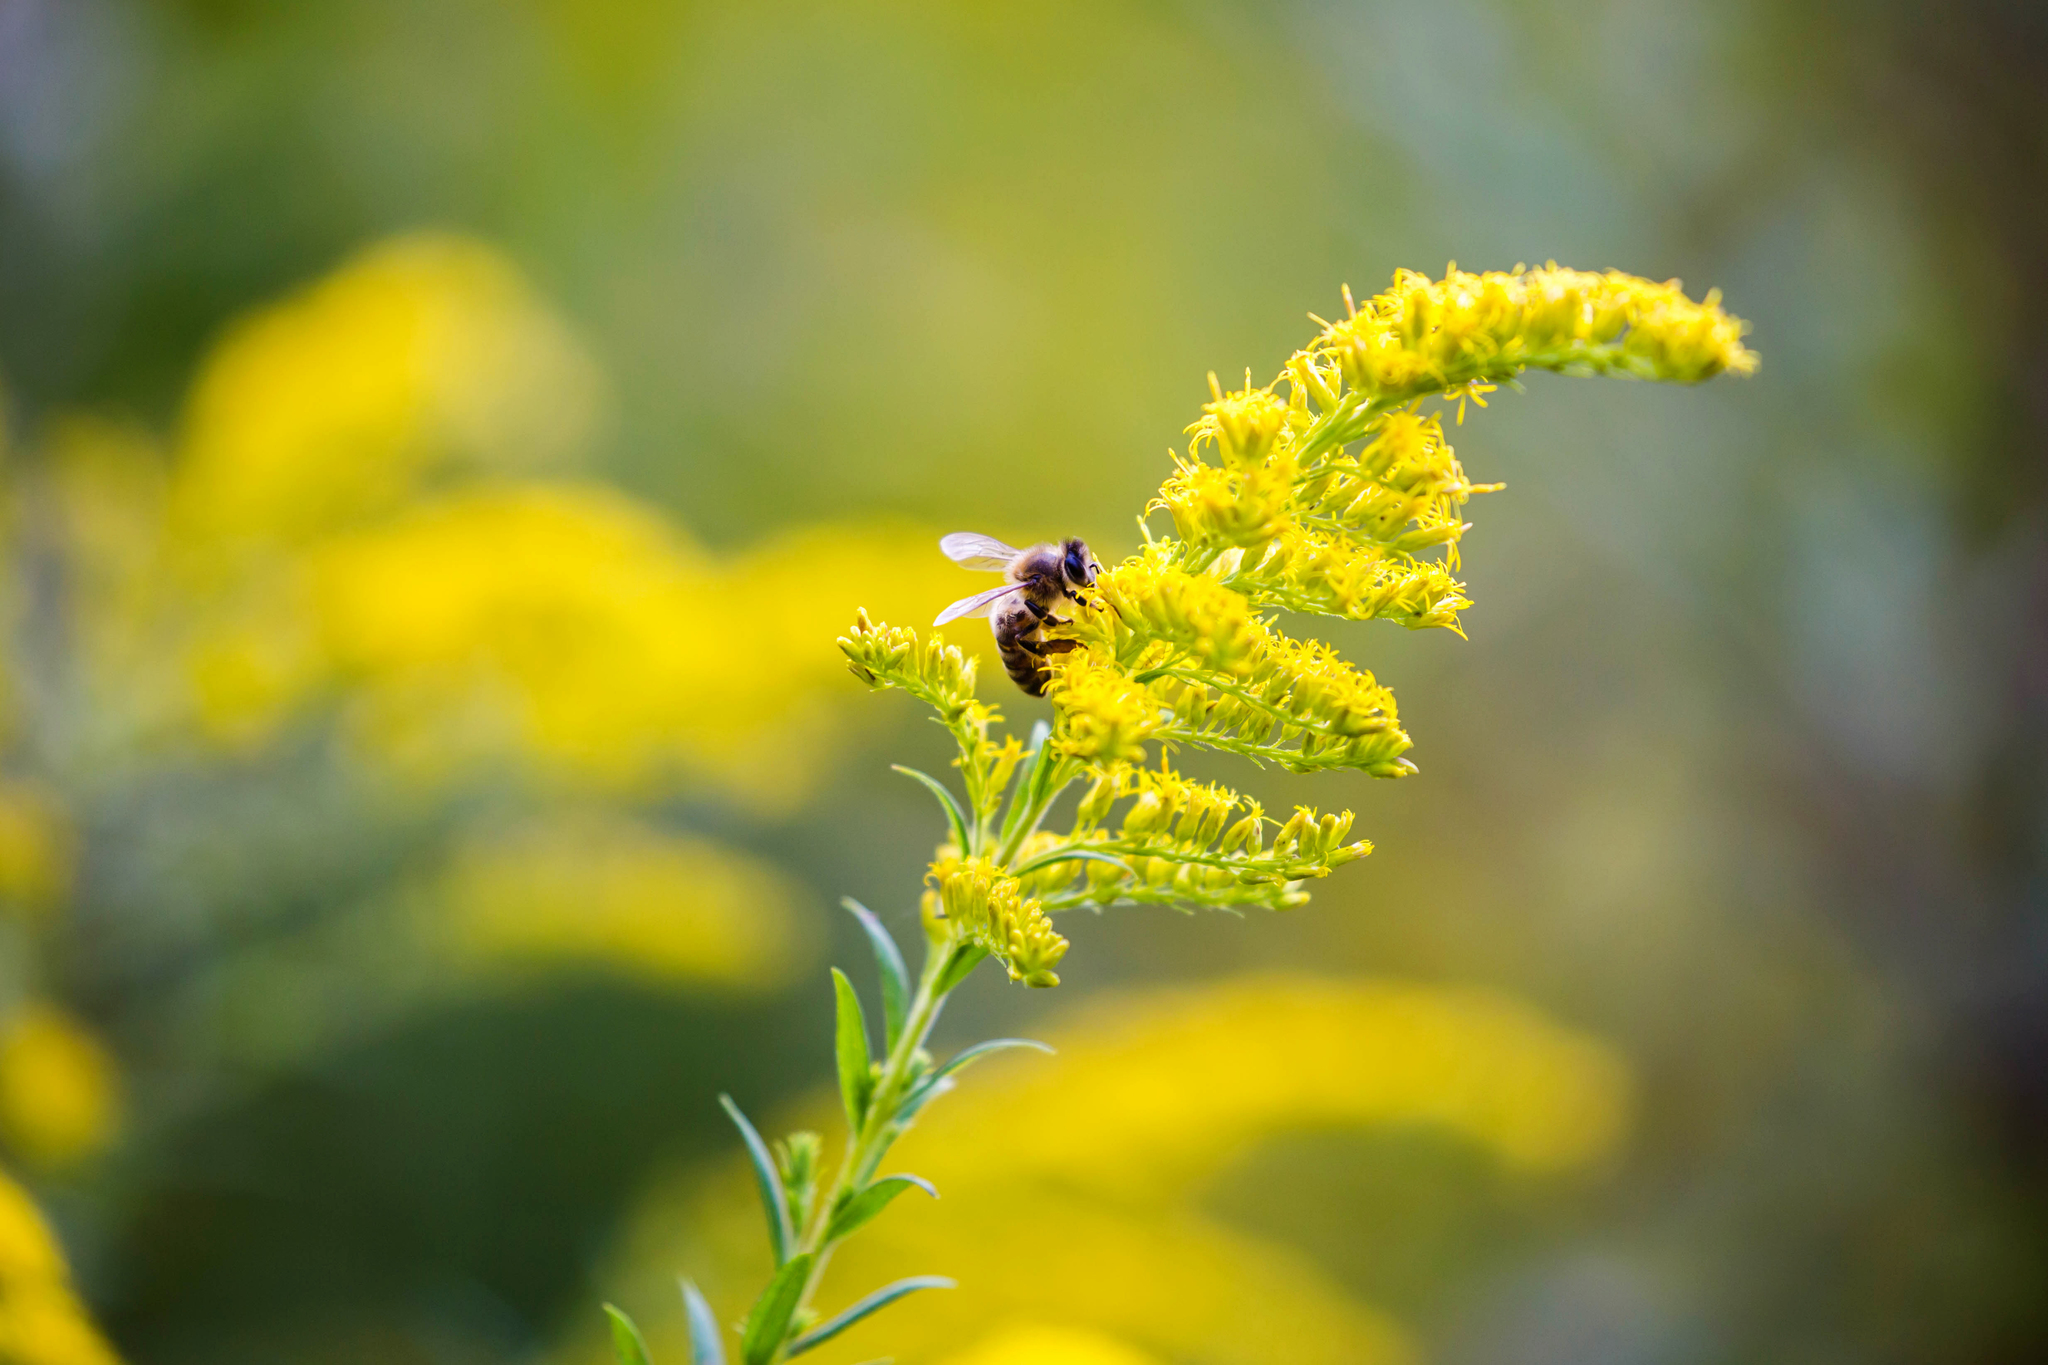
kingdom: Animalia
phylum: Arthropoda
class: Insecta
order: Hymenoptera
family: Apidae
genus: Apis
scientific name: Apis mellifera
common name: Honey bee
